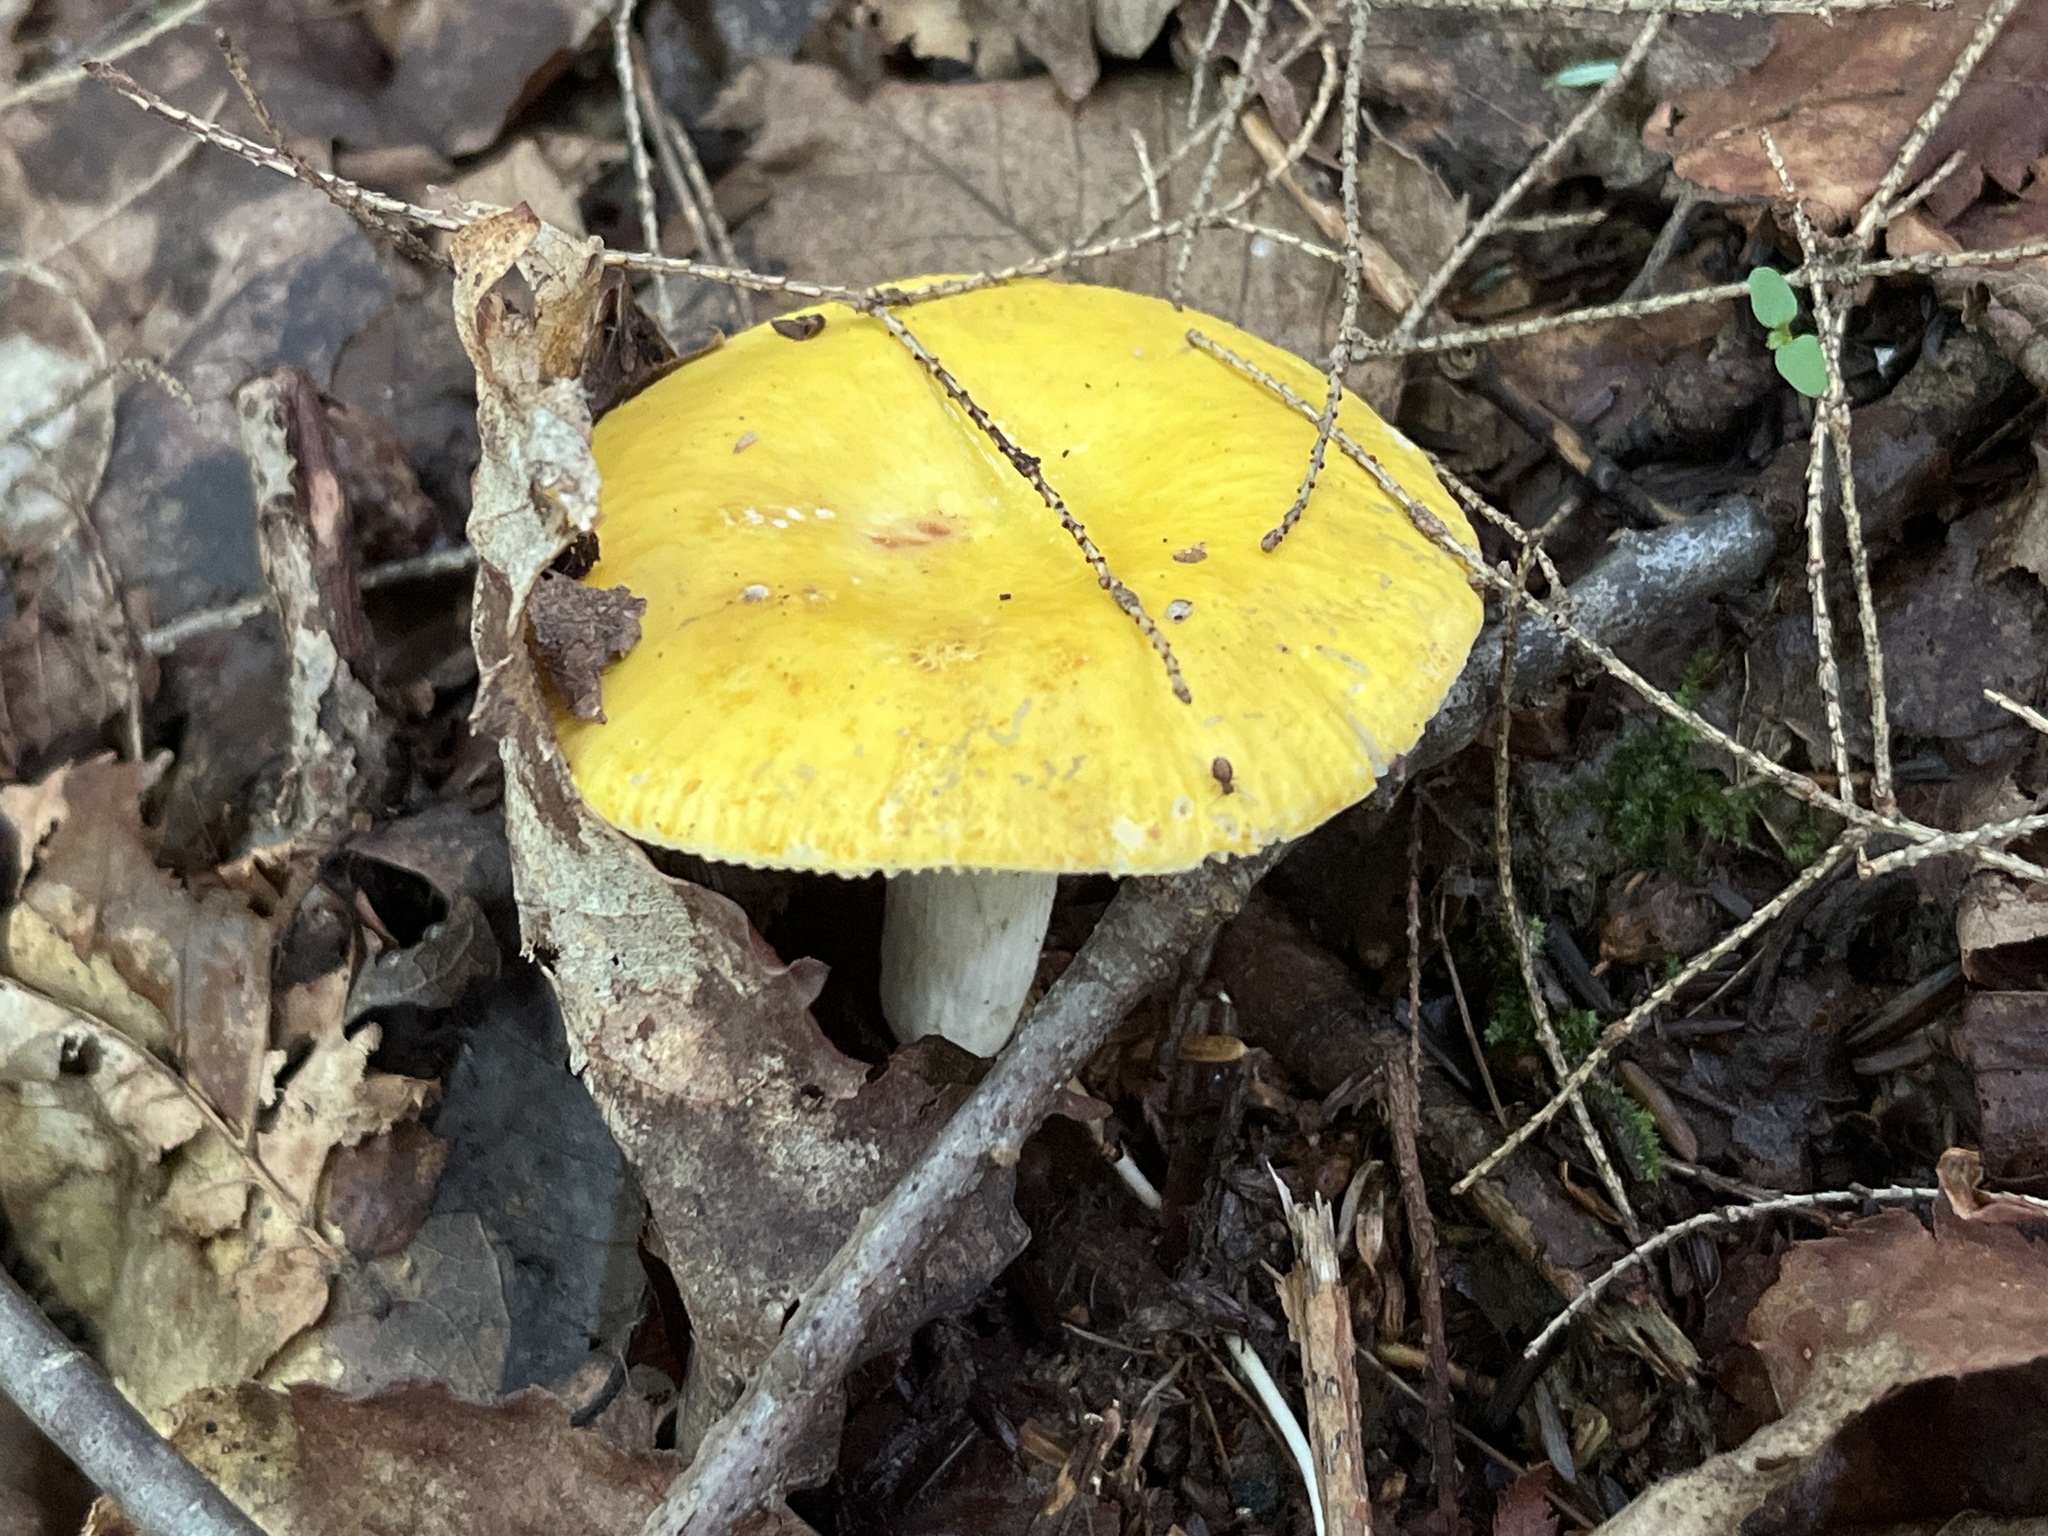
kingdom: Fungi
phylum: Basidiomycota
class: Agaricomycetes
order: Russulales
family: Russulaceae
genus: Russula
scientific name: Russula claroflava
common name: The yellow swamp brittlegill
